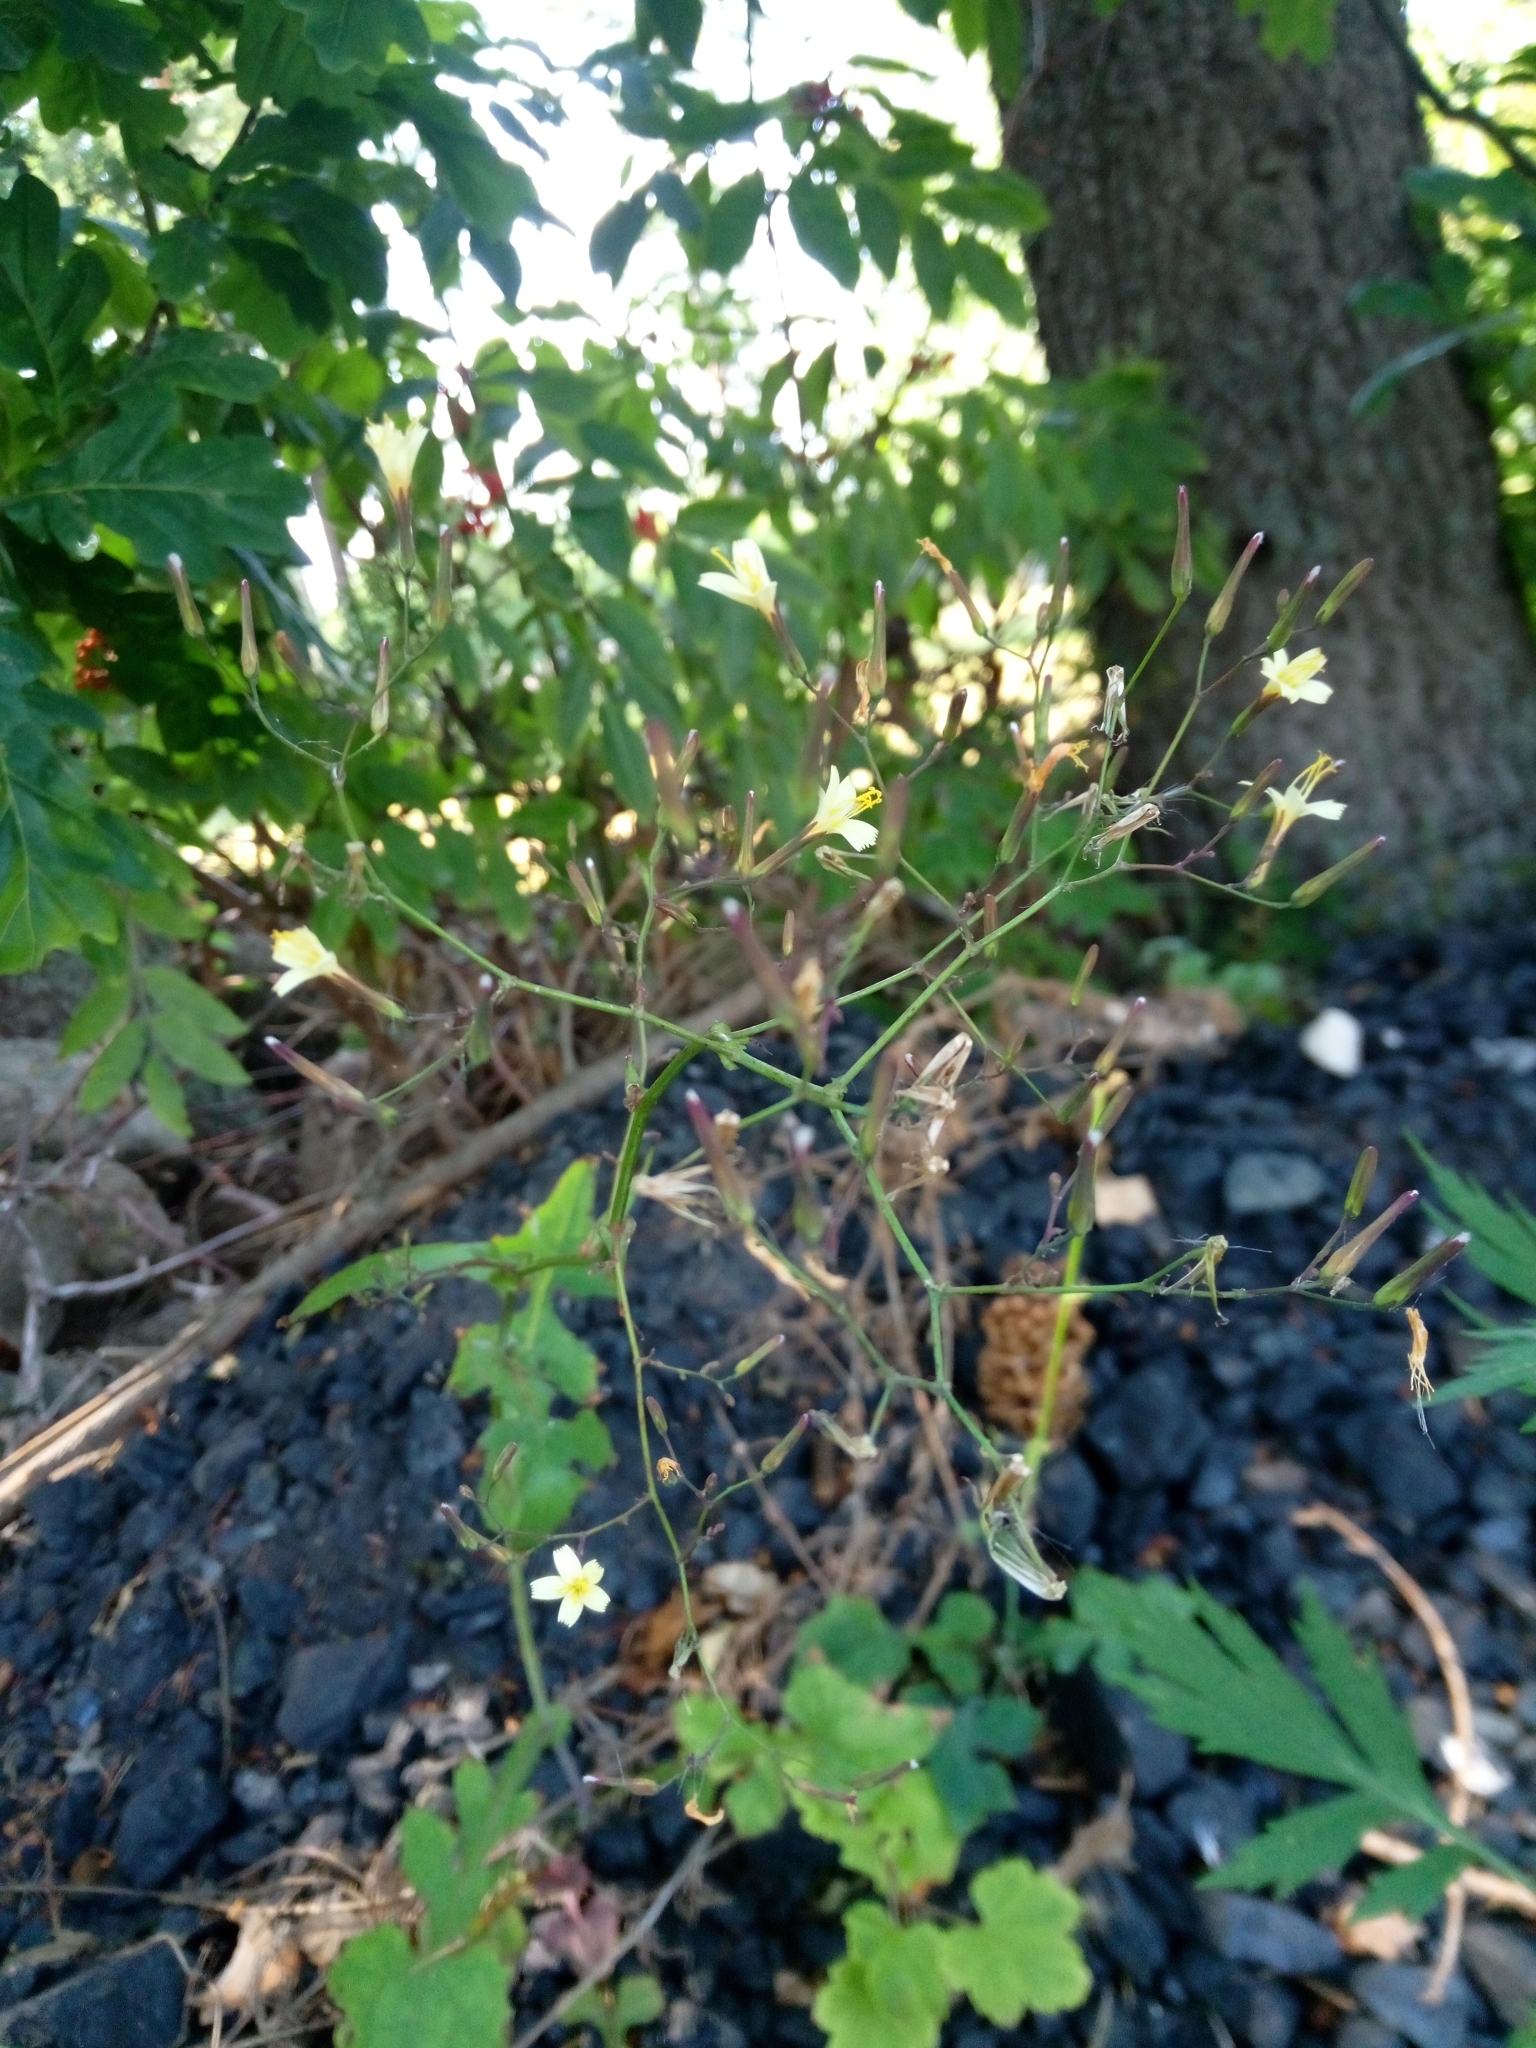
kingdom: Plantae
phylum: Tracheophyta
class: Magnoliopsida
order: Asterales
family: Asteraceae
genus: Mycelis
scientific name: Mycelis muralis
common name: Wall lettuce
